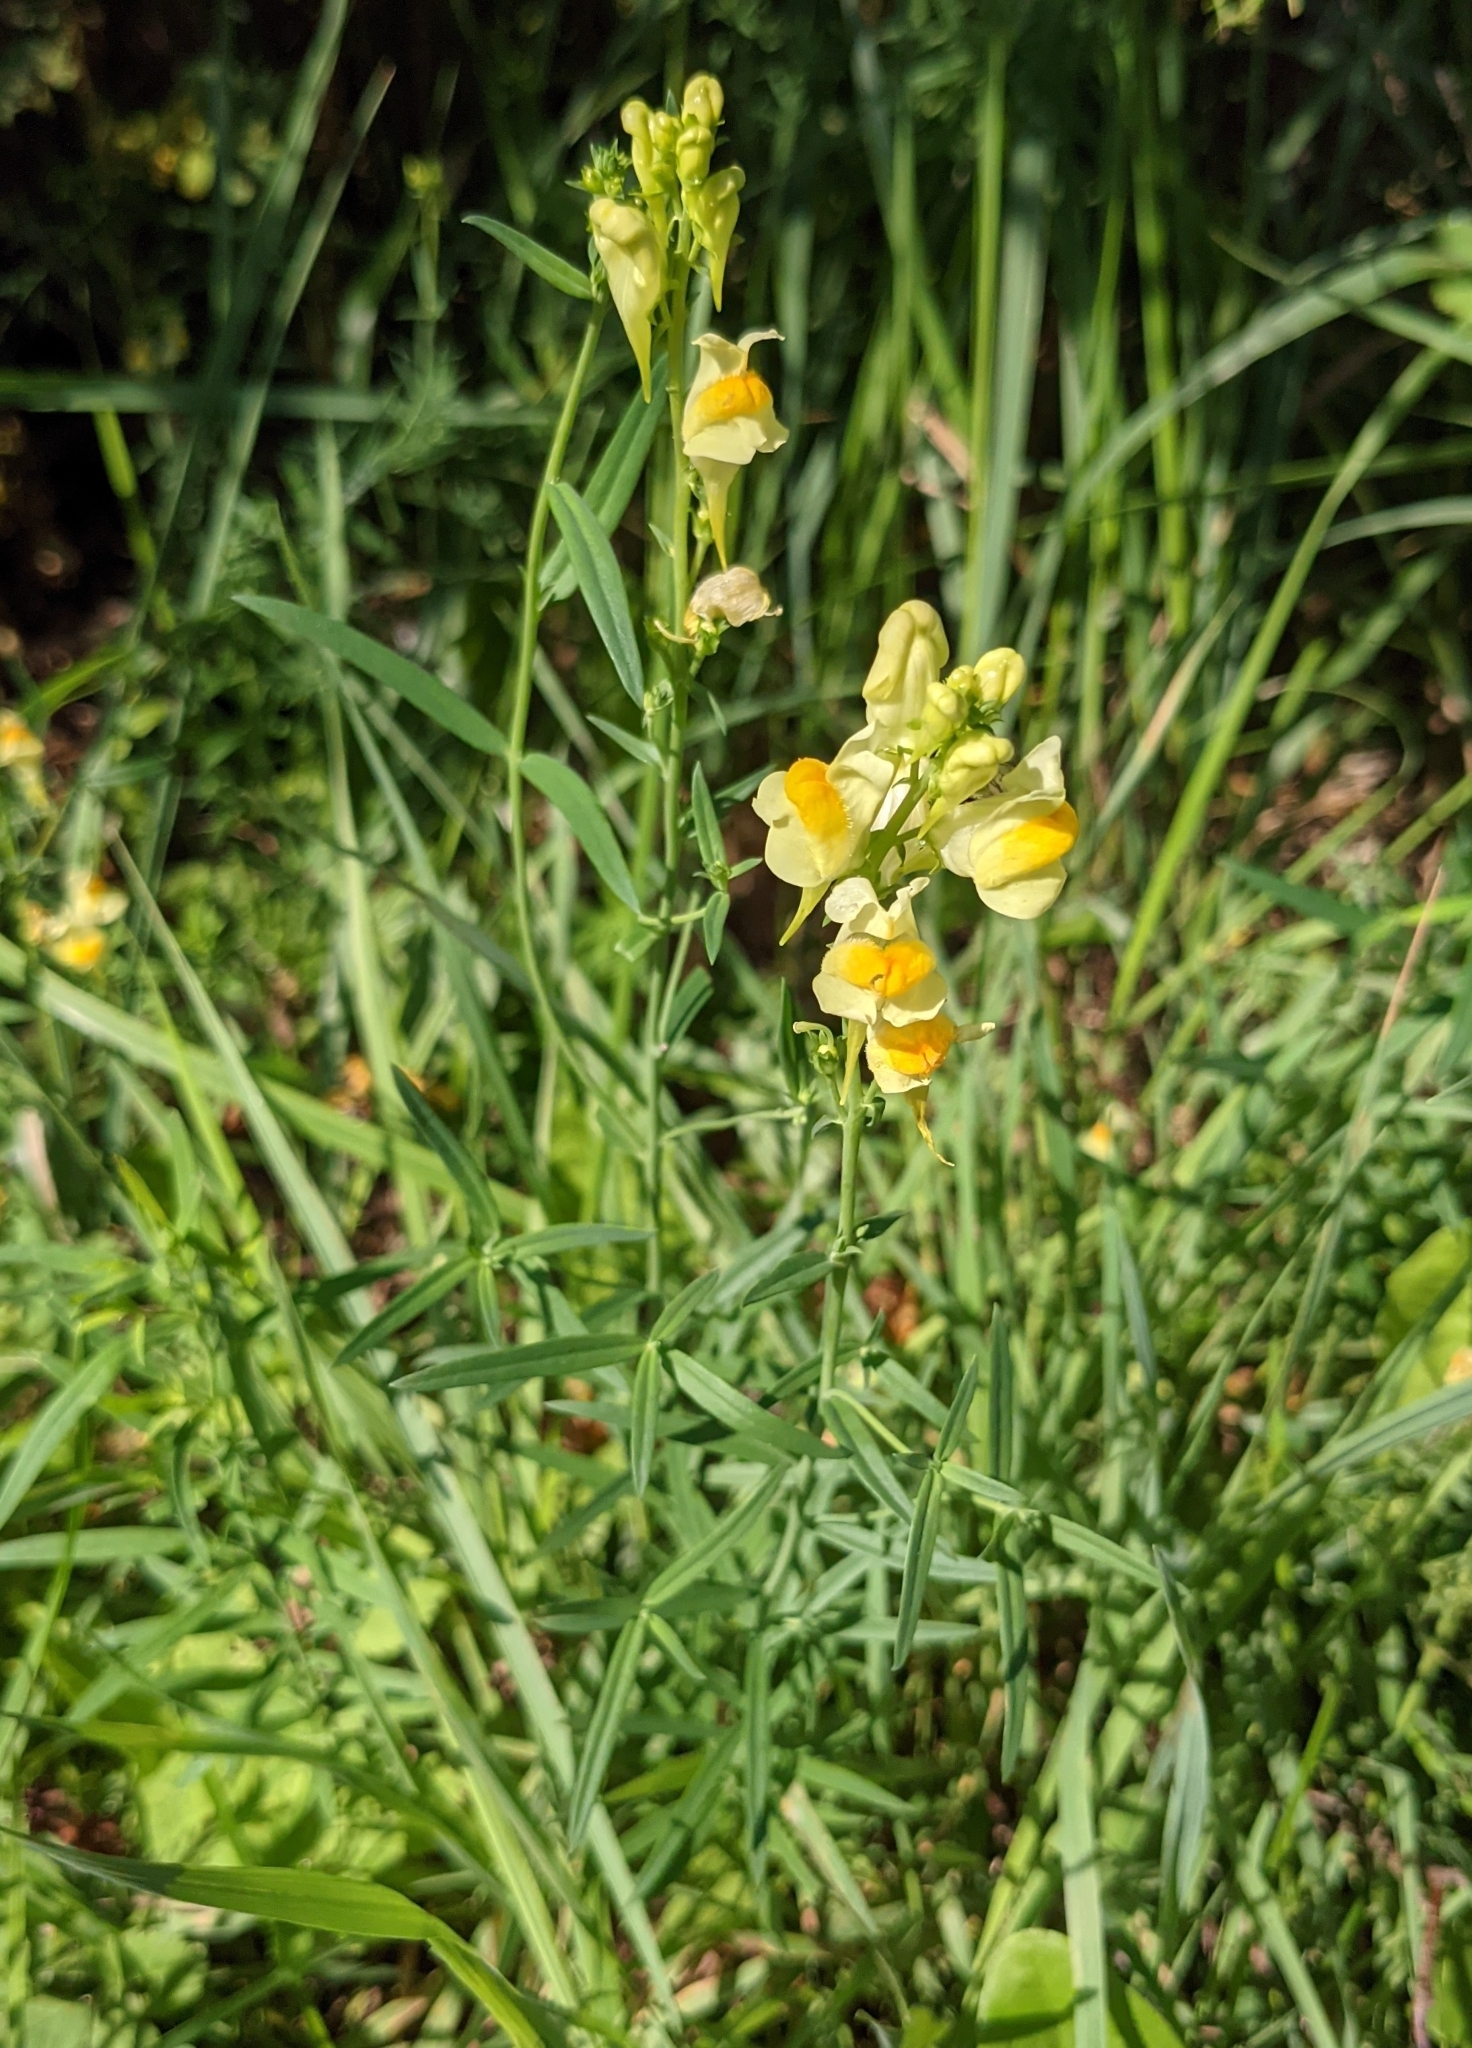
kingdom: Plantae
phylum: Tracheophyta
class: Magnoliopsida
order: Lamiales
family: Plantaginaceae
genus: Linaria
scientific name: Linaria vulgaris
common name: Butter and eggs
